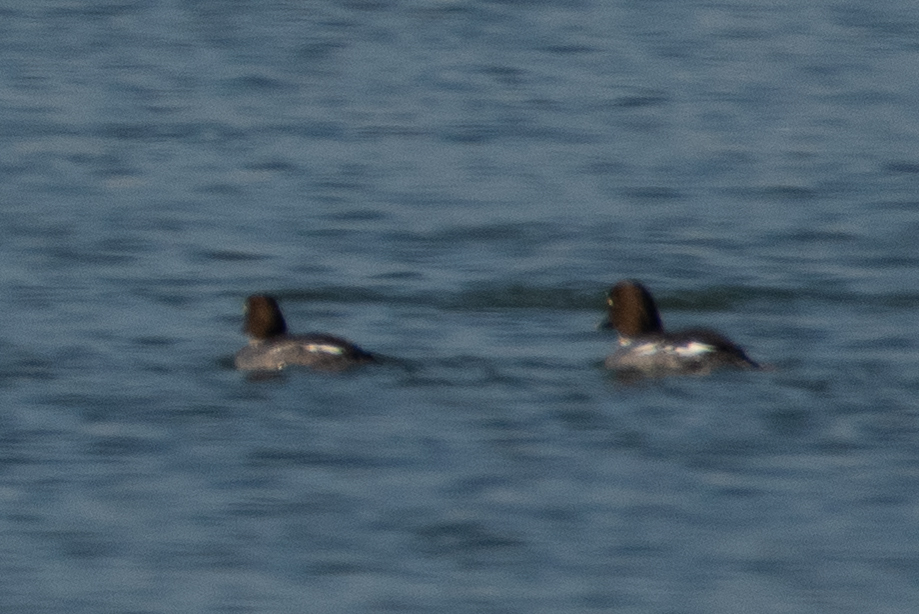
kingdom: Animalia
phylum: Chordata
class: Aves
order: Anseriformes
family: Anatidae
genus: Bucephala
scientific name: Bucephala clangula
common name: Common goldeneye
